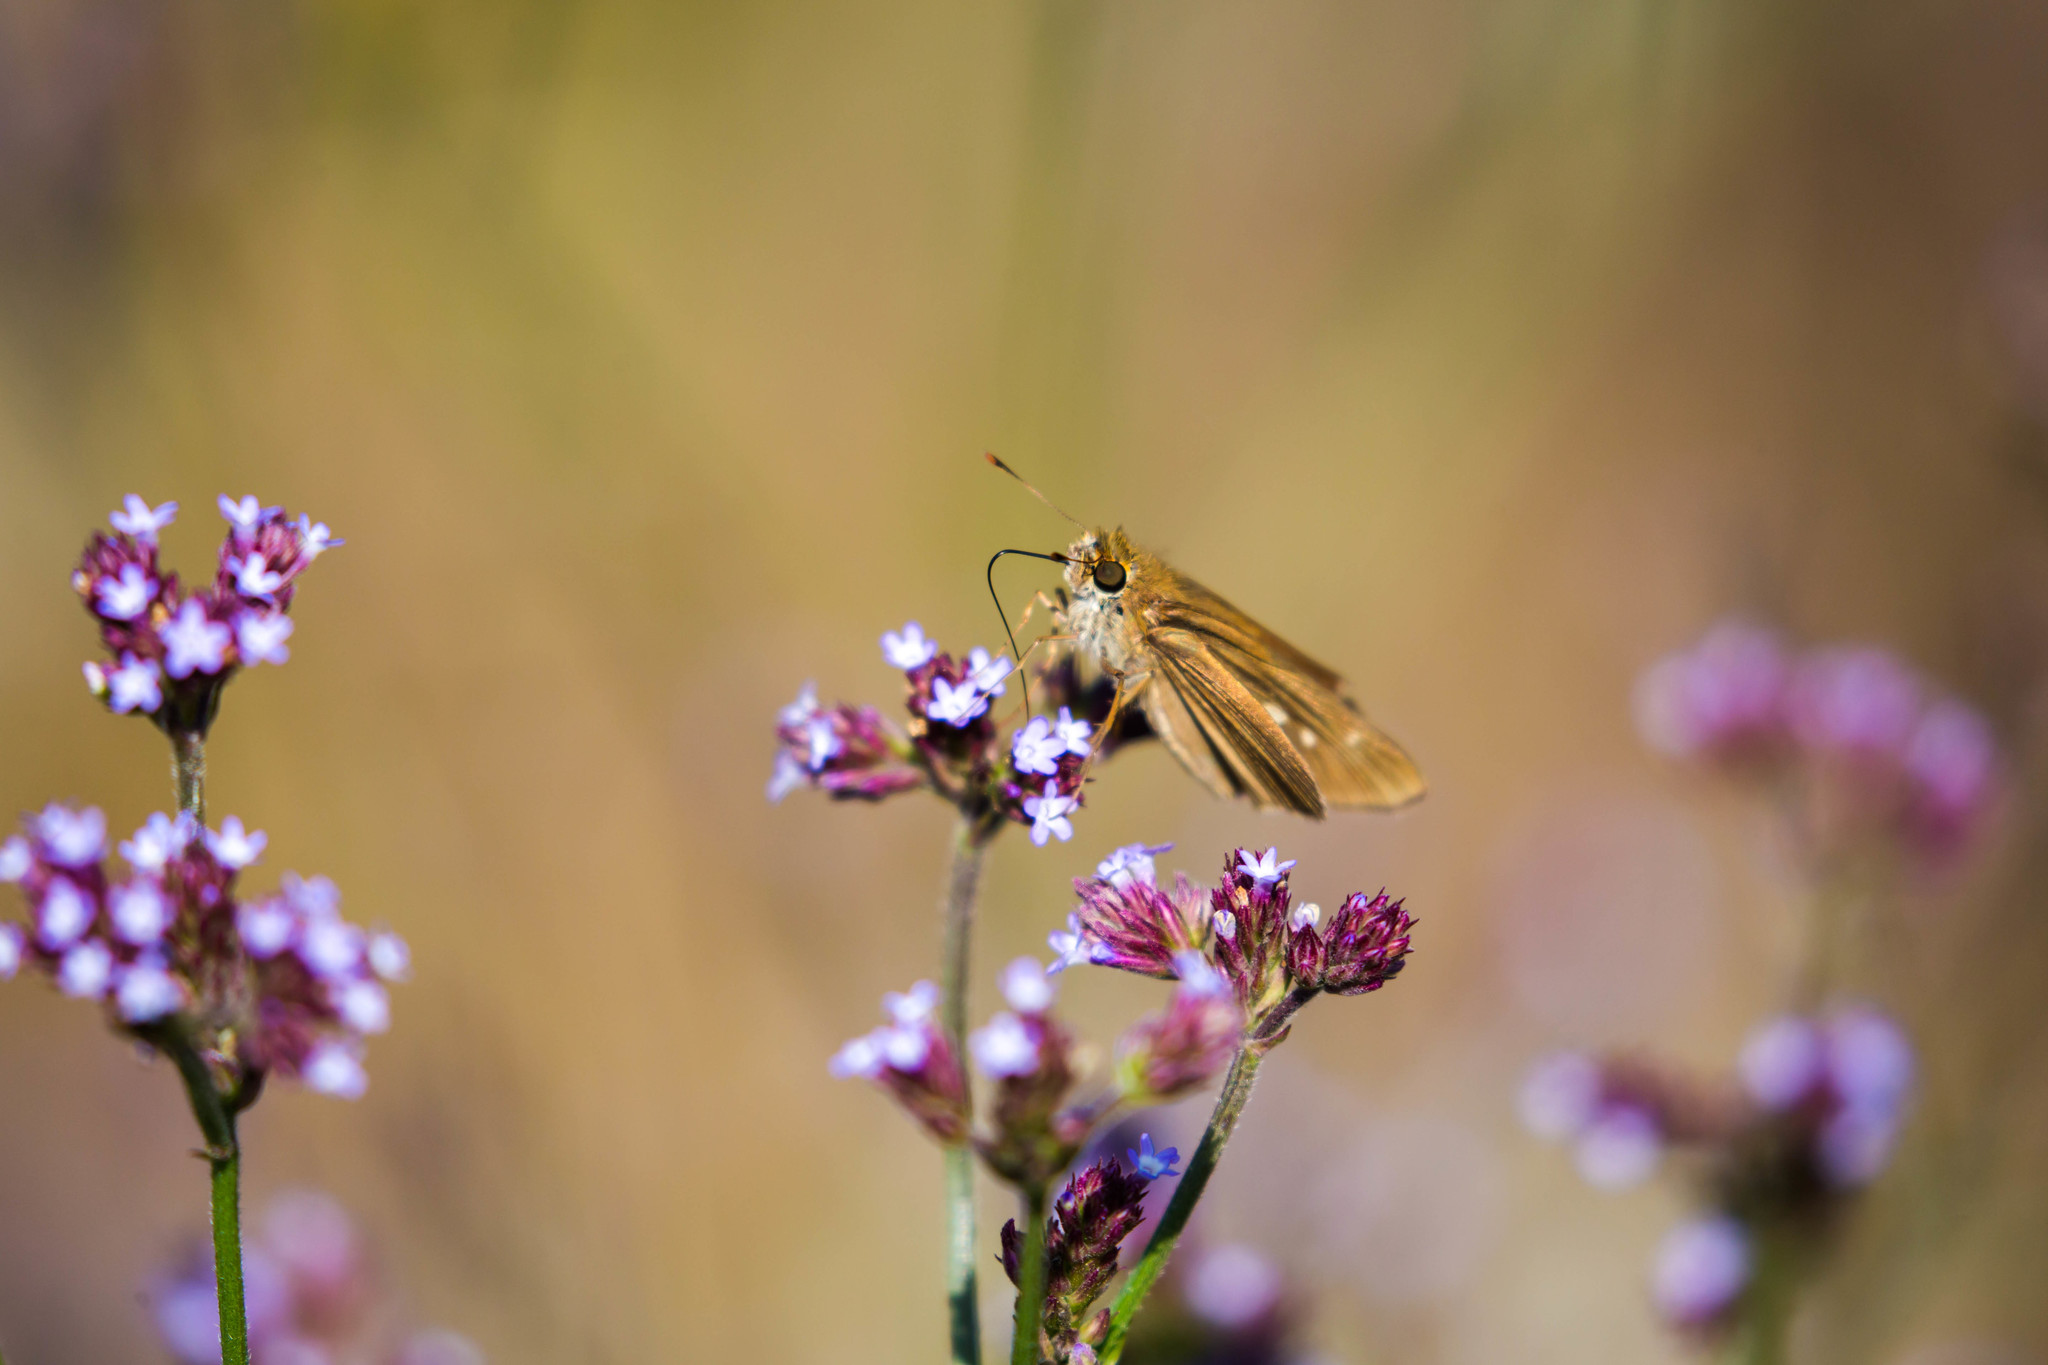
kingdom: Animalia
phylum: Arthropoda
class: Insecta
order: Lepidoptera
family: Hesperiidae
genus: Panoquina
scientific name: Panoquina ocola
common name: Ocola skipper
